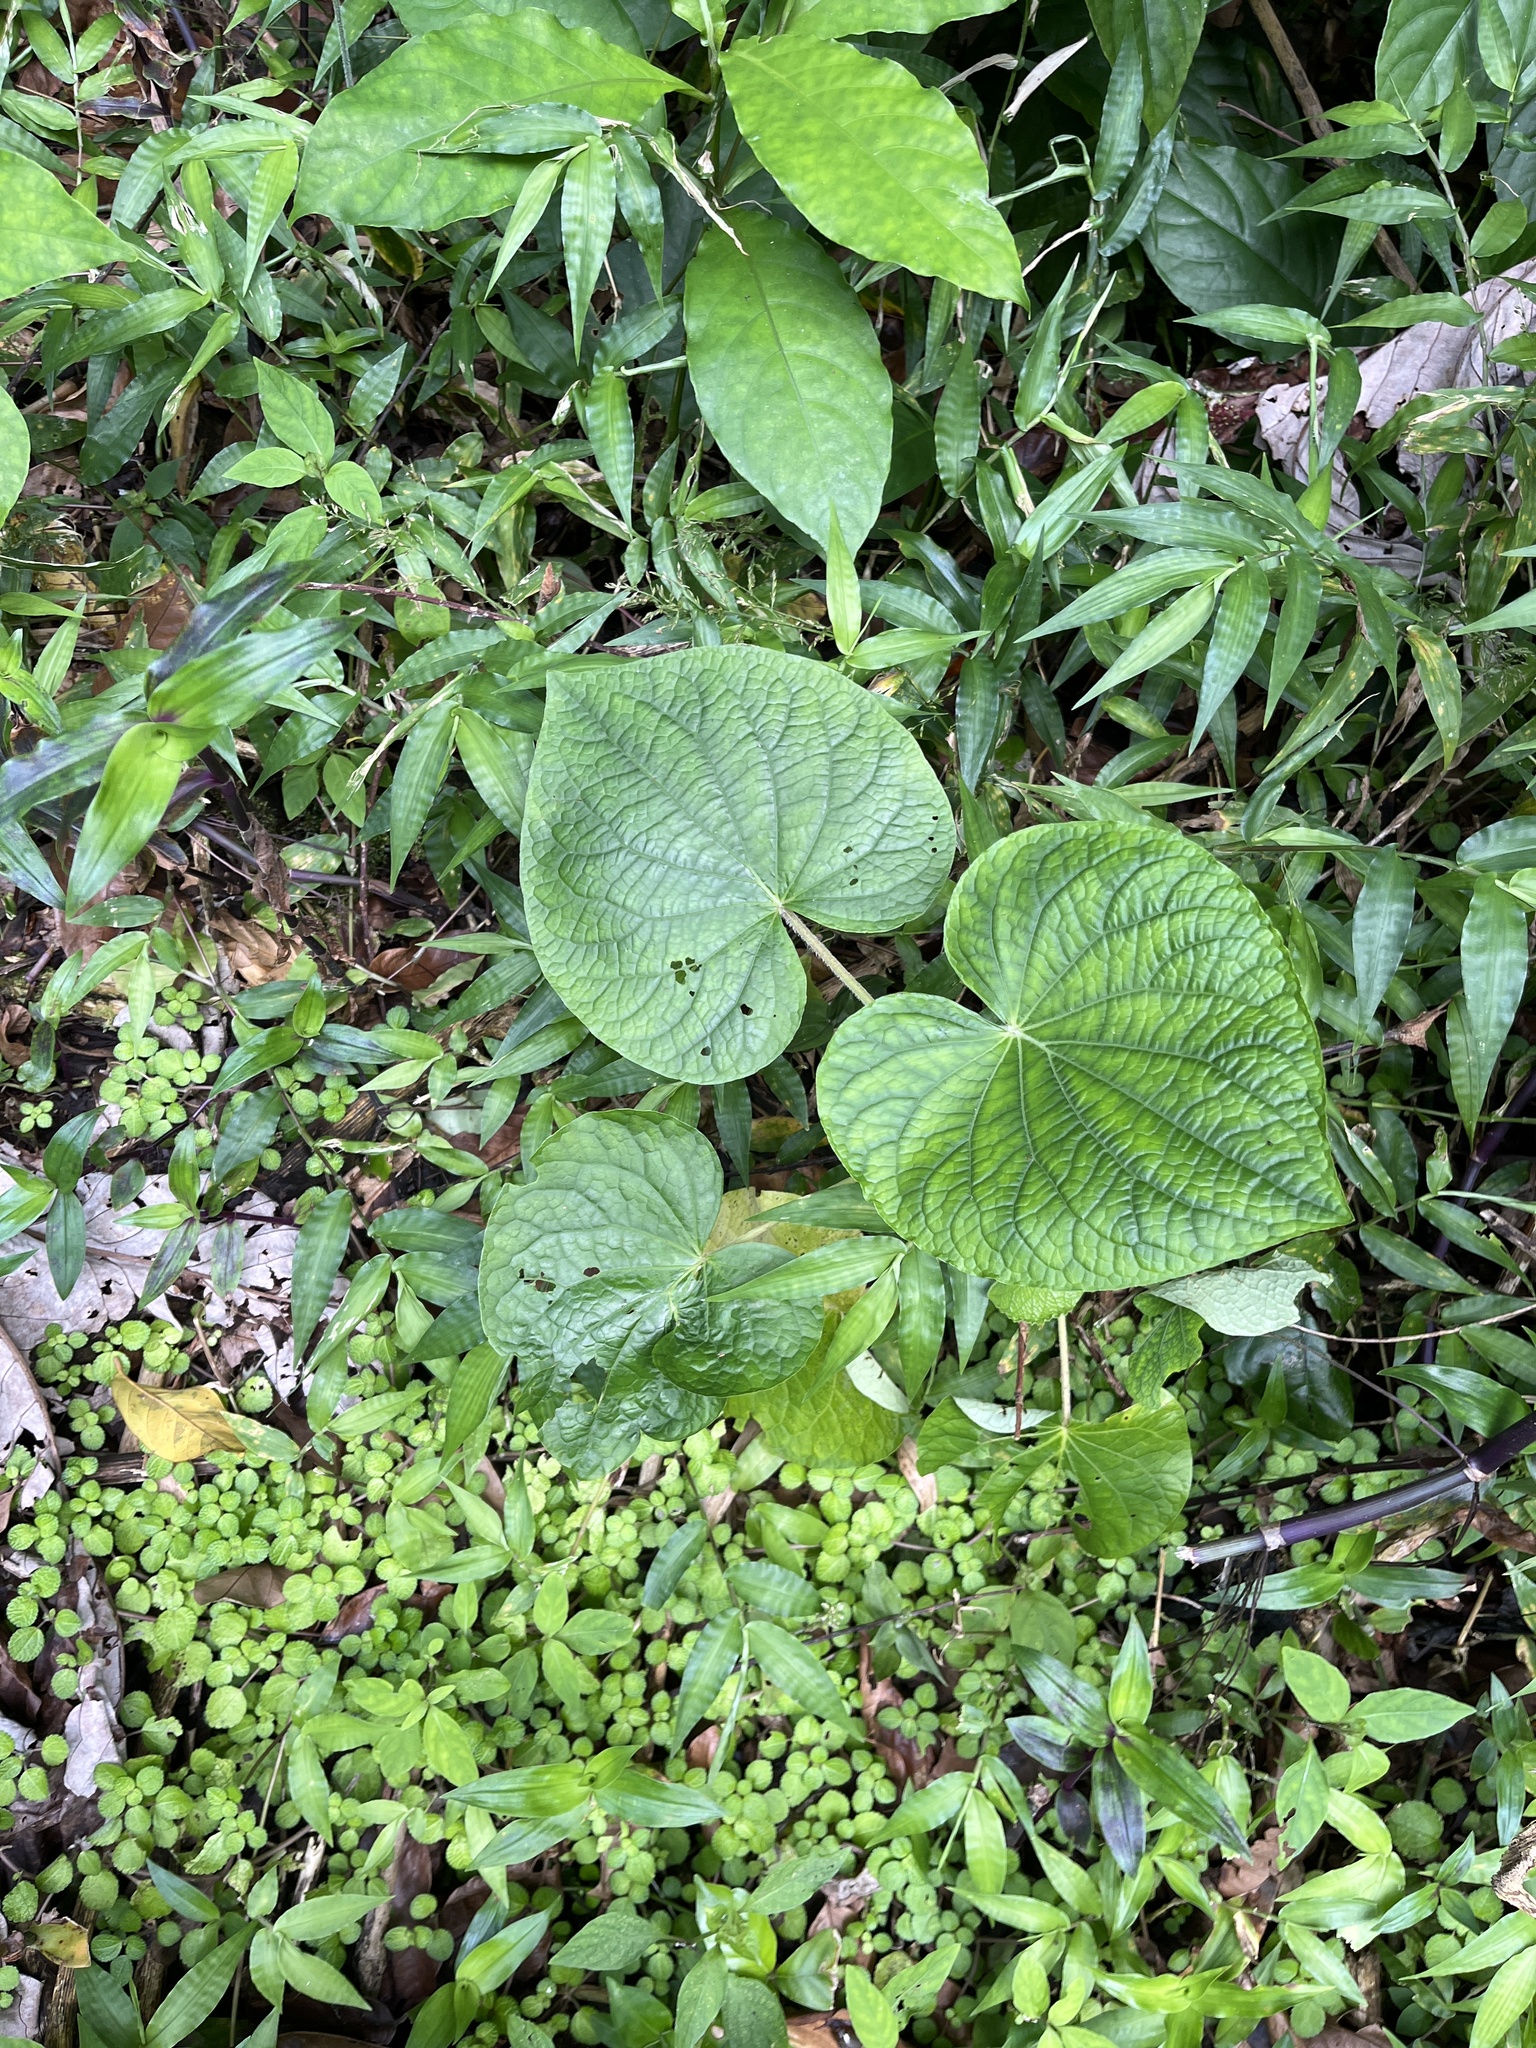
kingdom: Plantae
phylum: Tracheophyta
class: Magnoliopsida
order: Piperales
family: Piperaceae
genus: Piper
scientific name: Piper umbellatum
